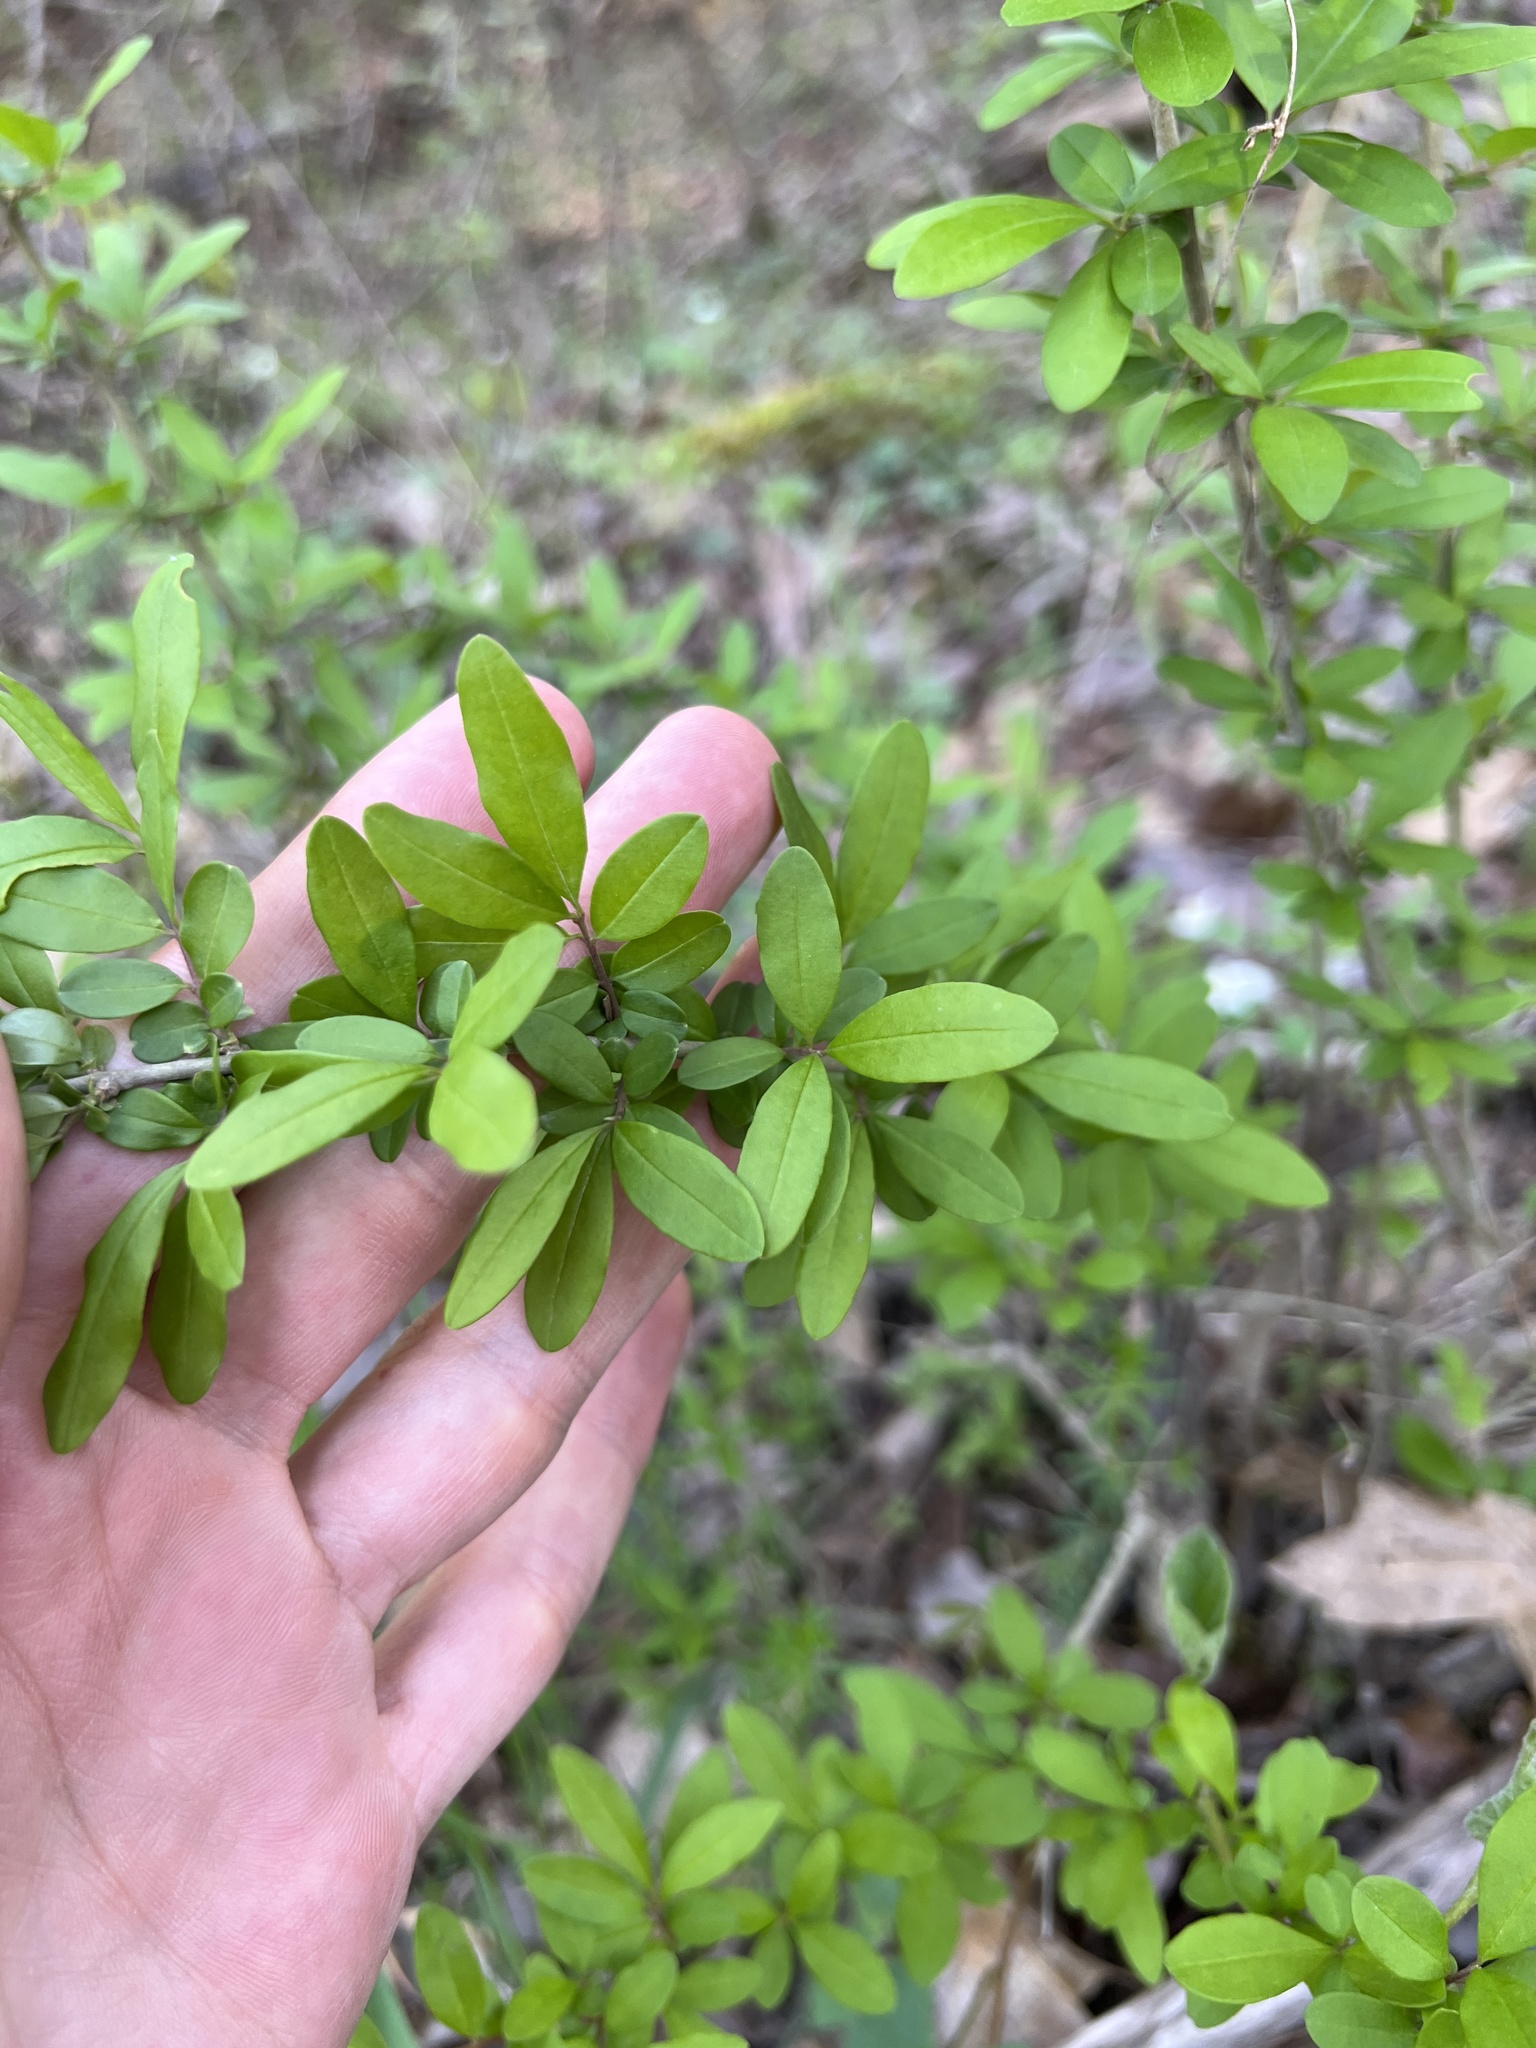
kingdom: Plantae
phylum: Tracheophyta
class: Magnoliopsida
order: Lamiales
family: Oleaceae
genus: Ligustrum
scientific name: Ligustrum sinense
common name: Chinese privet
